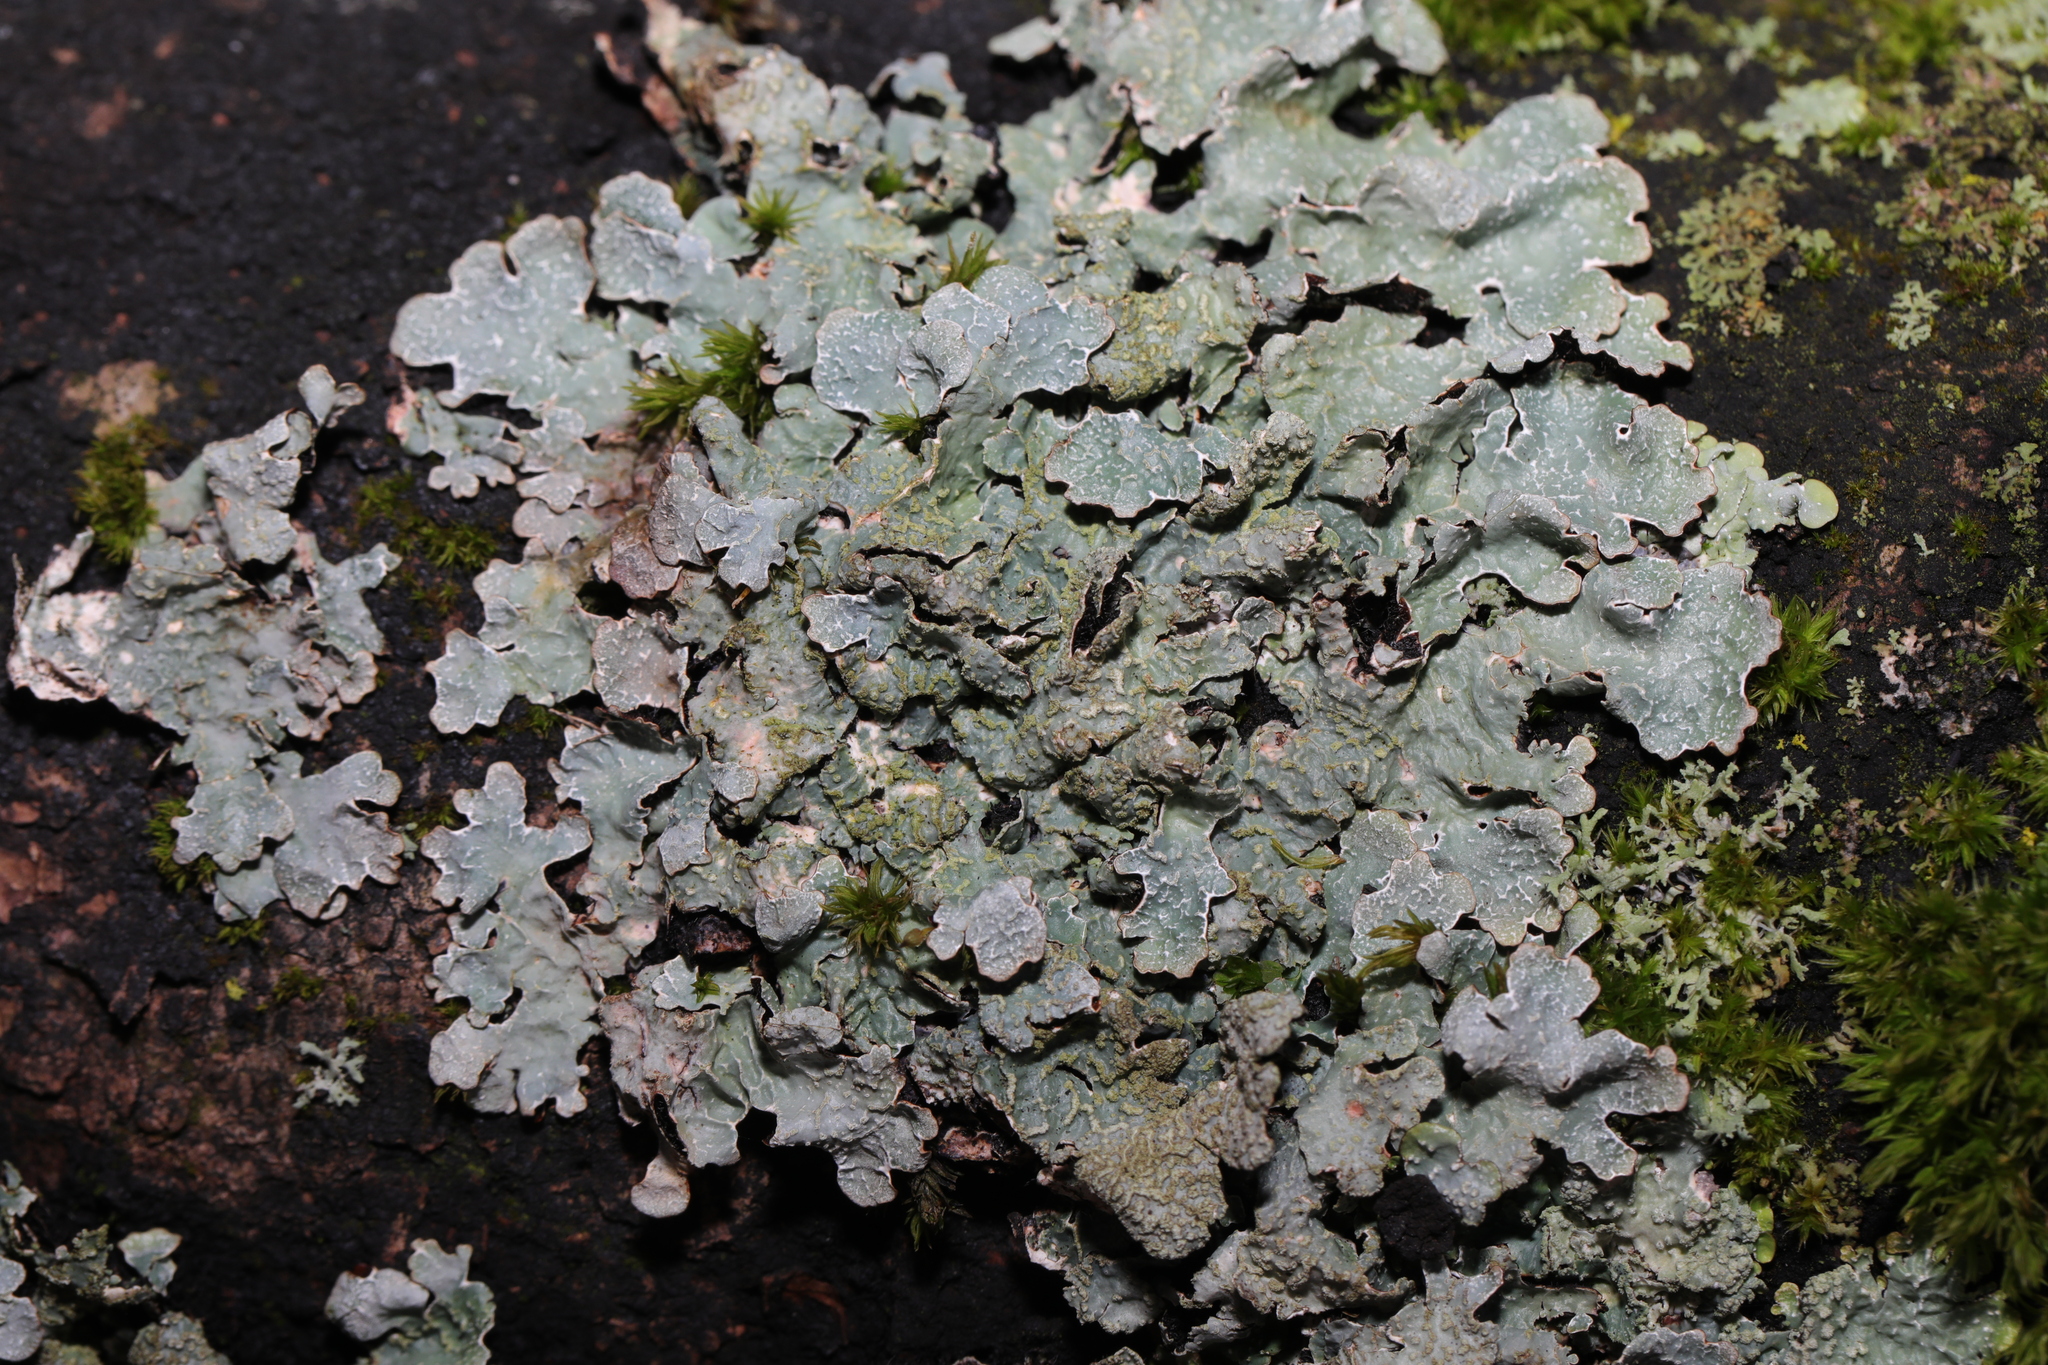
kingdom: Fungi
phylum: Ascomycota
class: Lecanoromycetes
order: Lecanorales
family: Parmeliaceae
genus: Parmelia
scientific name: Parmelia sulcata
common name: Netted shield lichen
